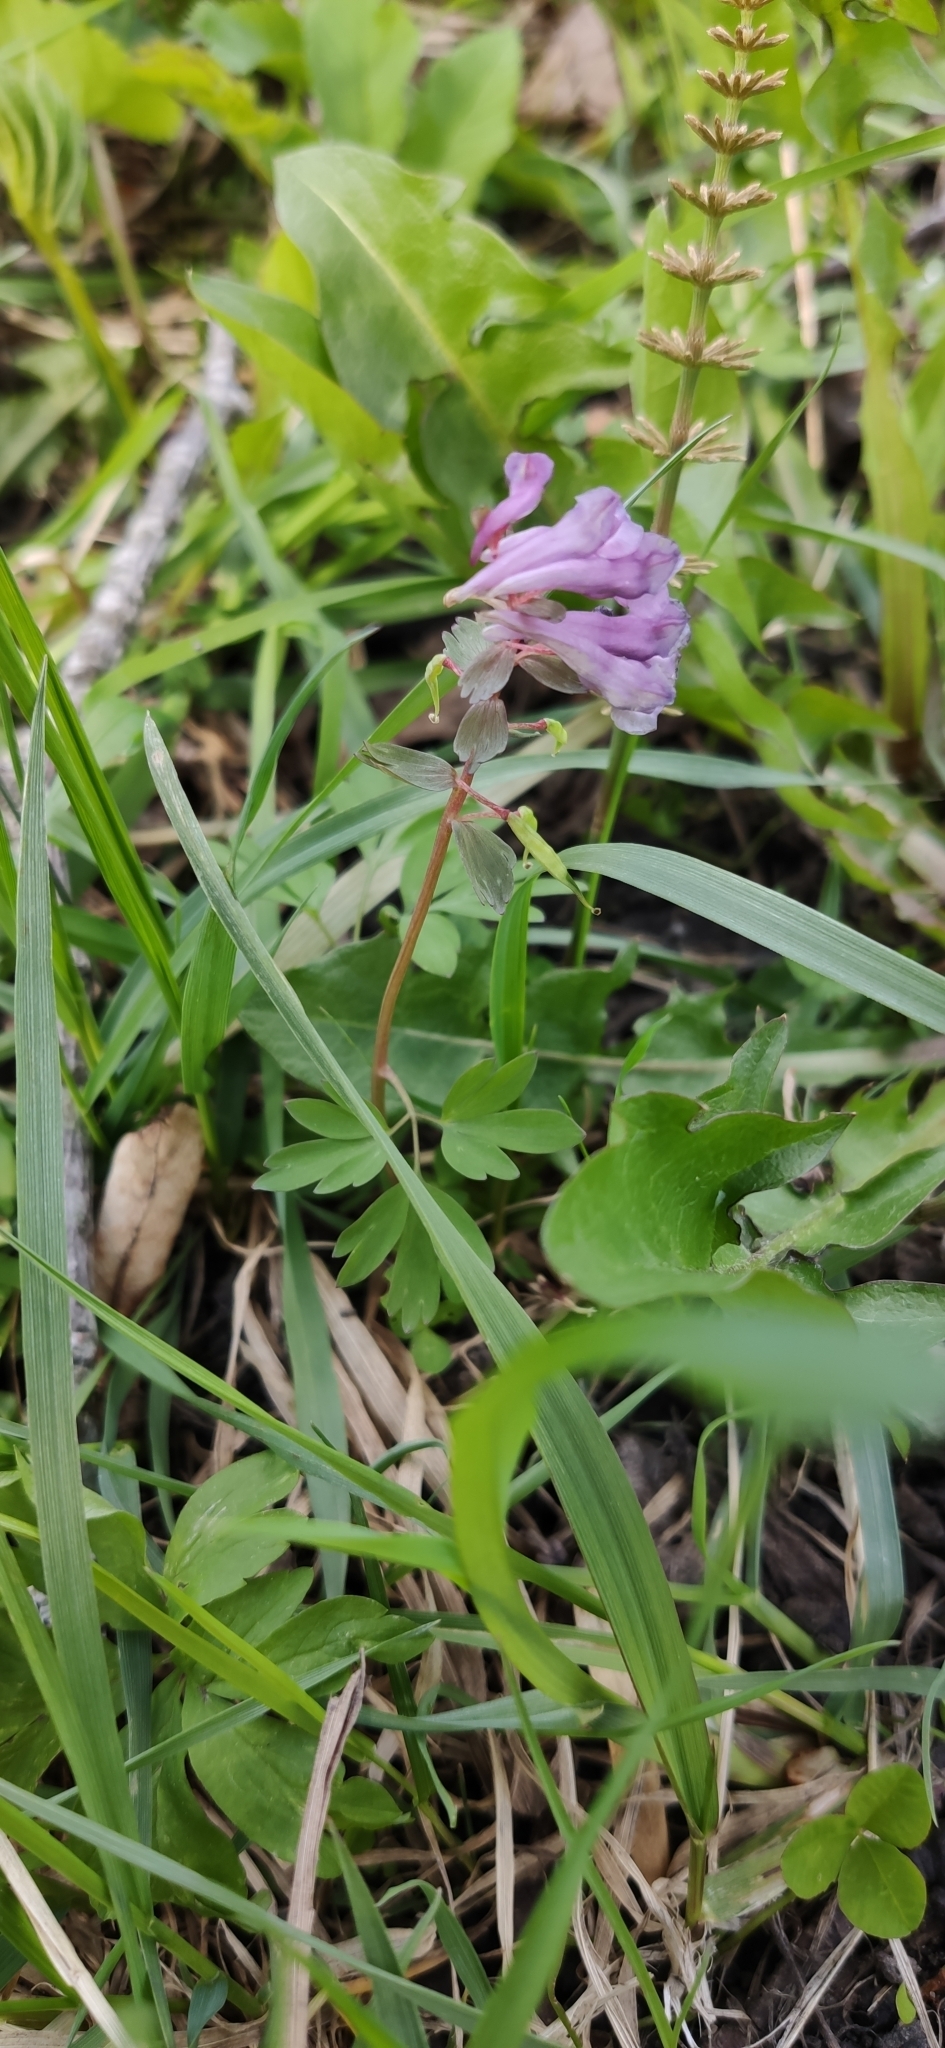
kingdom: Plantae
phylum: Tracheophyta
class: Magnoliopsida
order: Ranunculales
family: Papaveraceae
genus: Corydalis
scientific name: Corydalis solida
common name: Bird-in-a-bush
